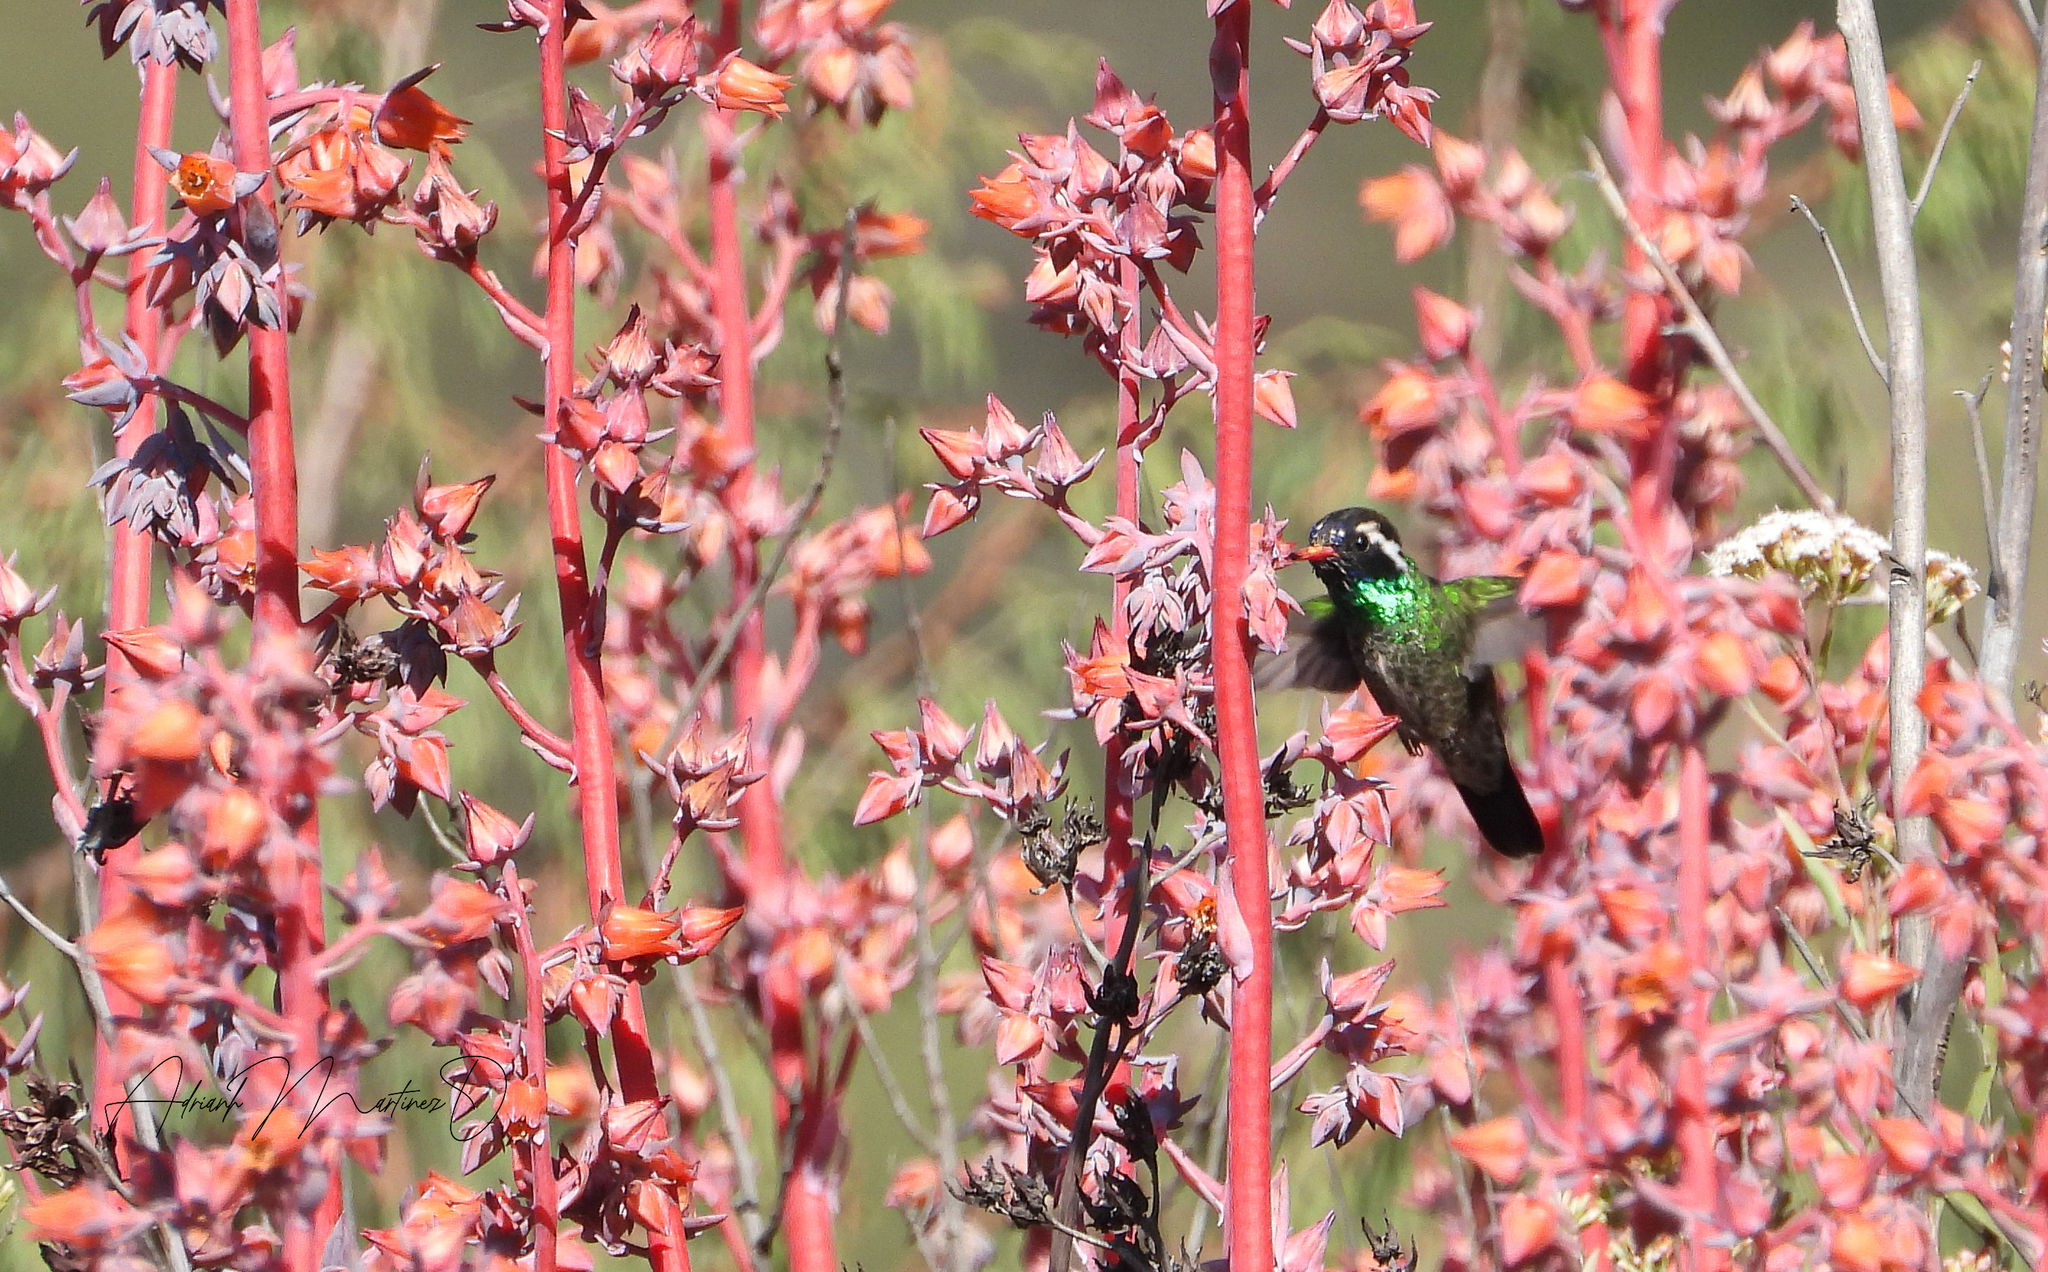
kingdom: Animalia
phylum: Chordata
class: Aves
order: Apodiformes
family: Trochilidae
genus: Basilinna
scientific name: Basilinna leucotis
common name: White-eared hummingbird
